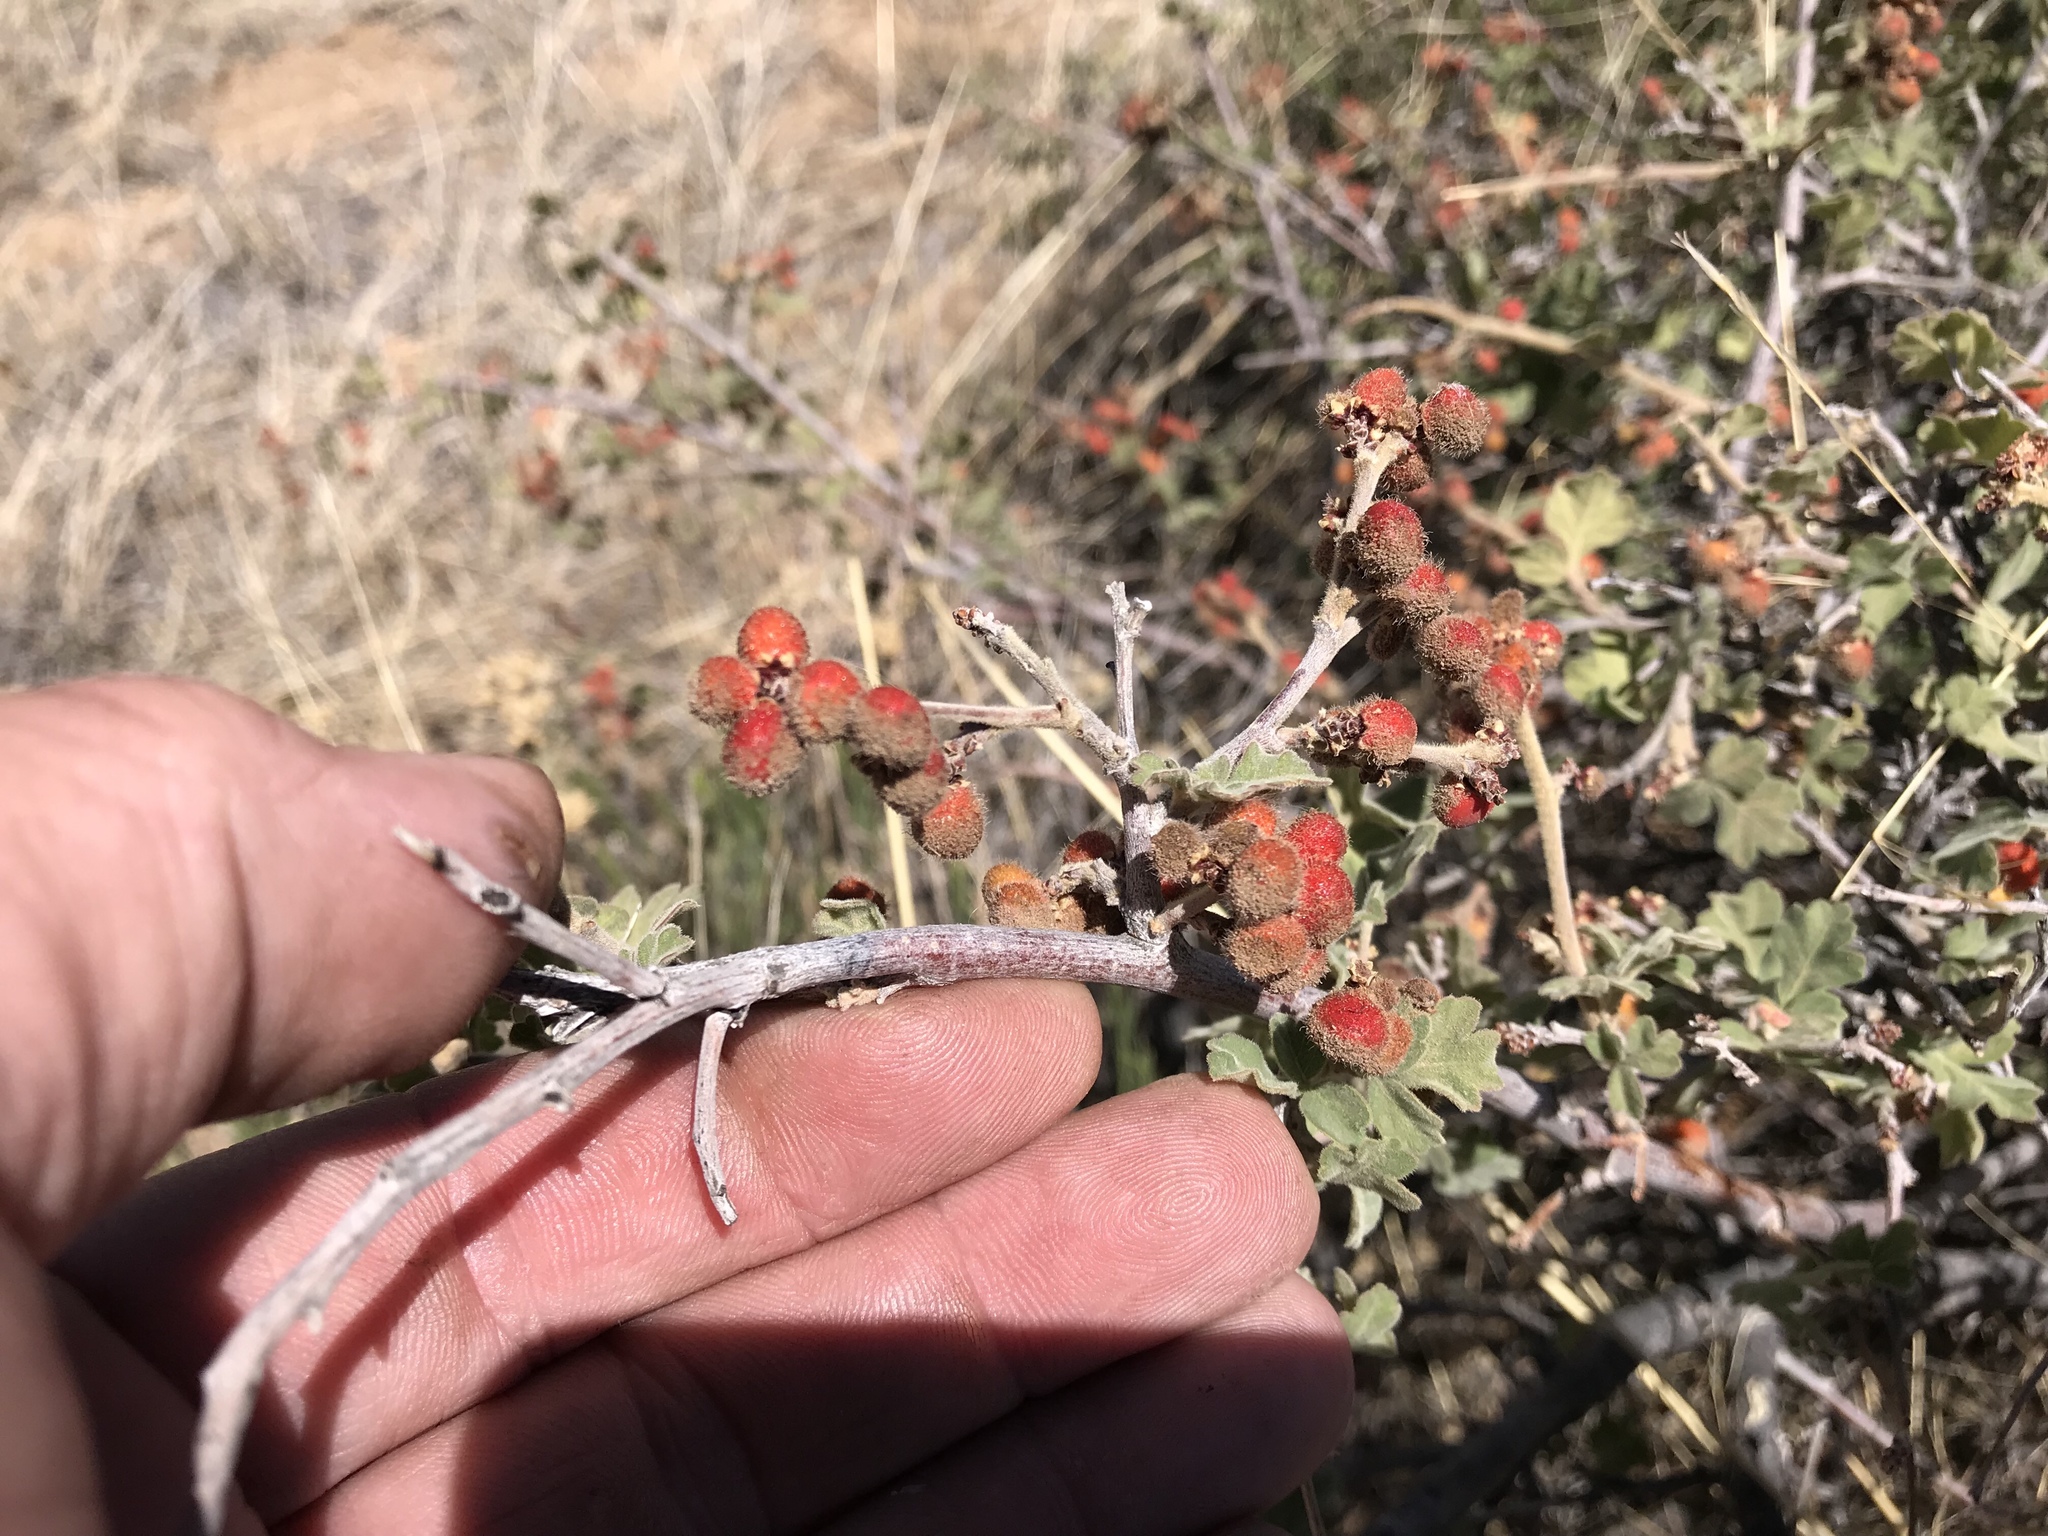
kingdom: Plantae
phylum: Tracheophyta
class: Magnoliopsida
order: Sapindales
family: Anacardiaceae
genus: Rhus
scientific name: Rhus aromatica
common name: Aromatic sumac
